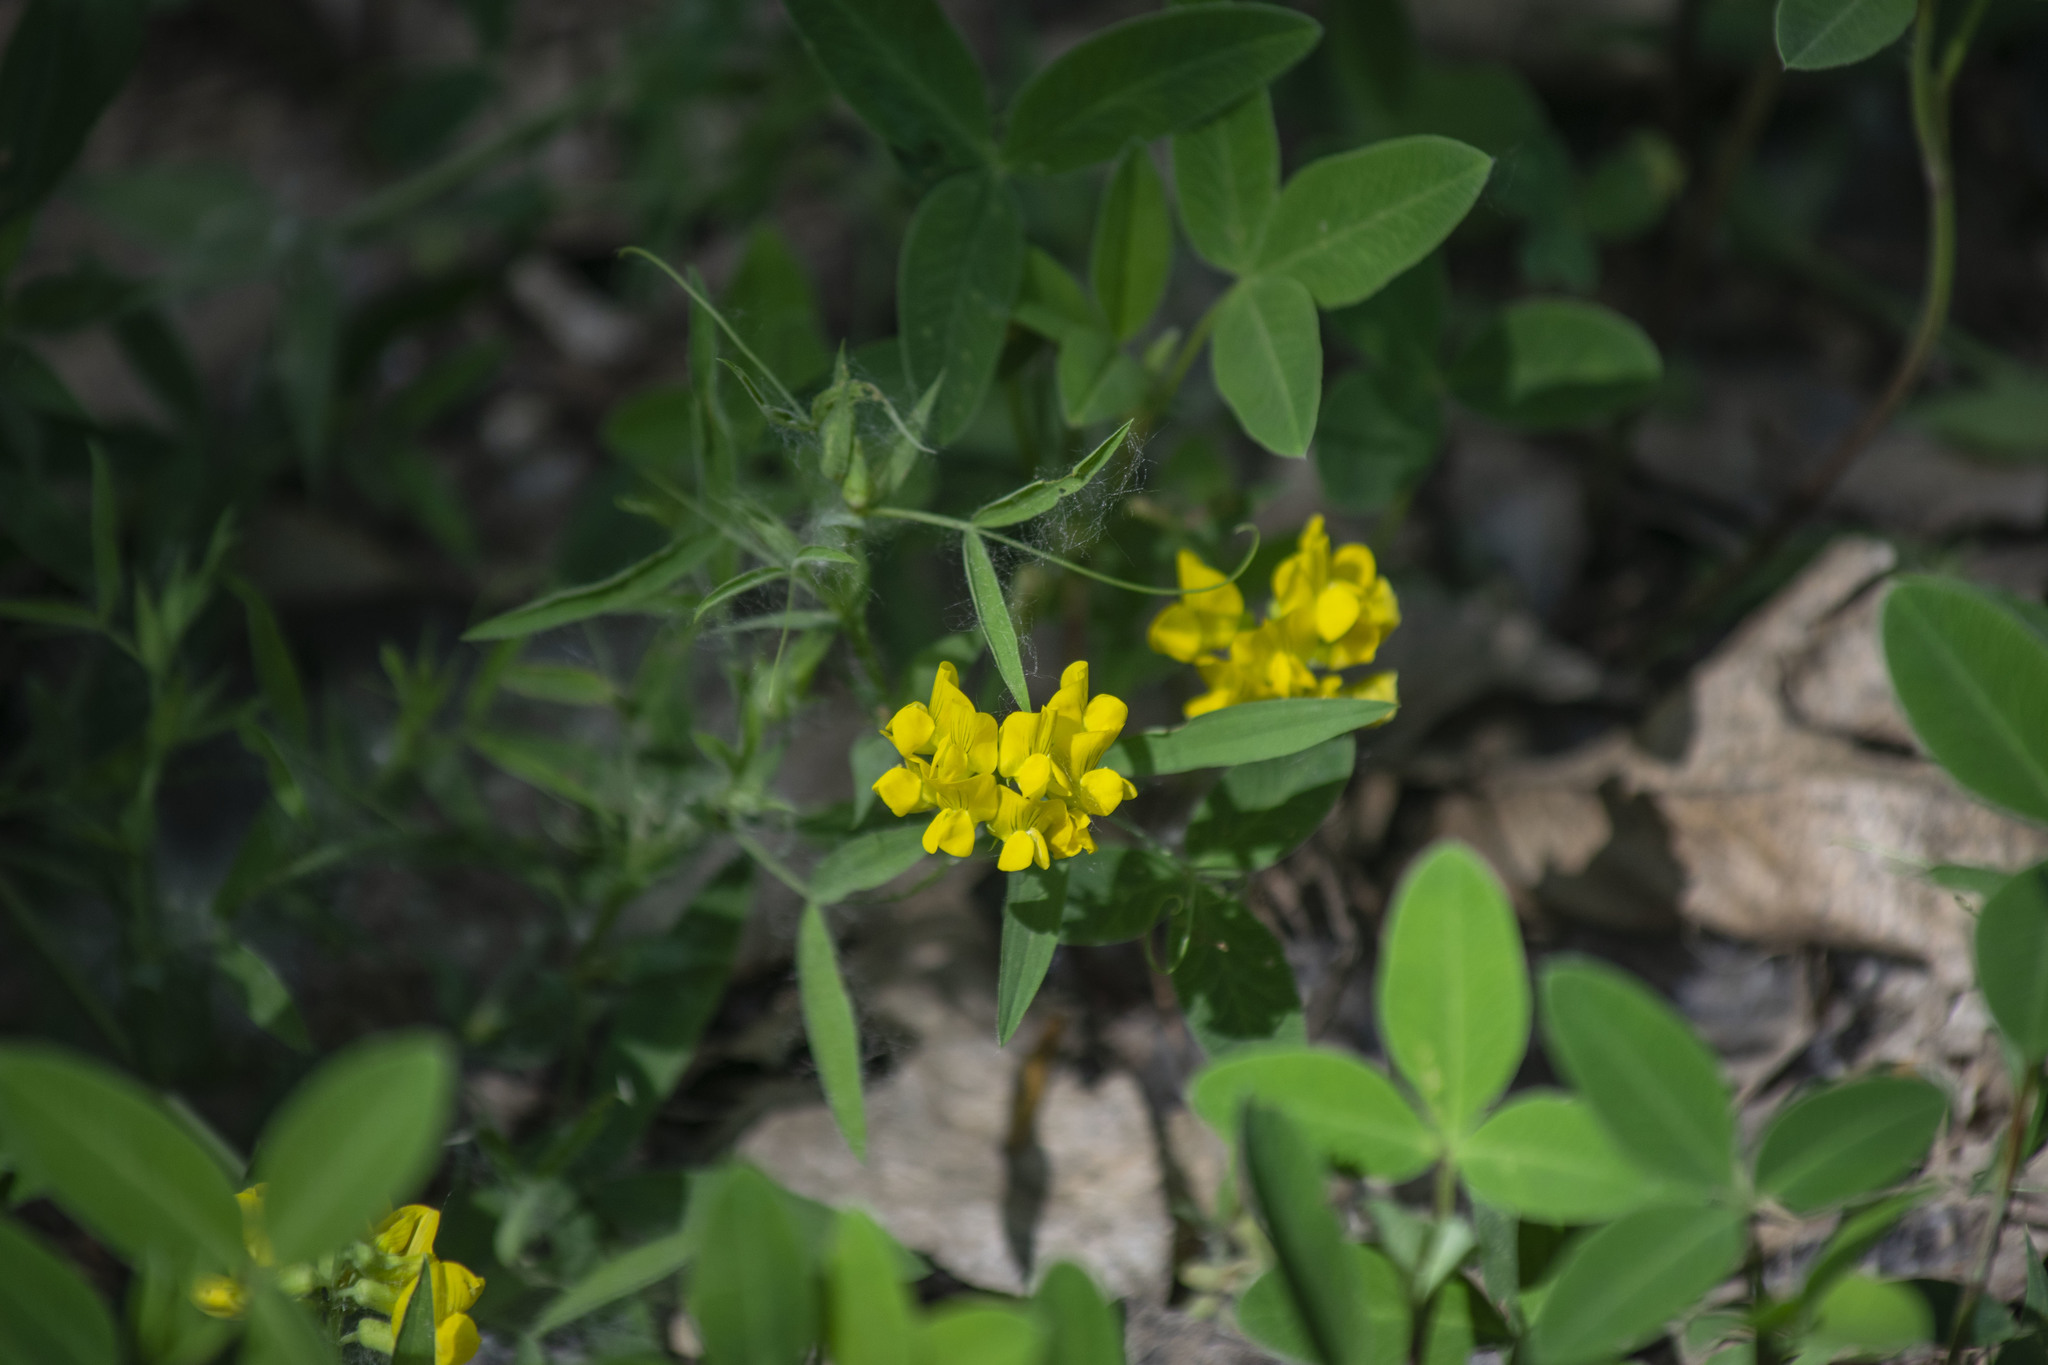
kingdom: Plantae
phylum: Tracheophyta
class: Magnoliopsida
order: Fabales
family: Fabaceae
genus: Lathyrus
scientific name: Lathyrus pratensis
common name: Meadow vetchling
